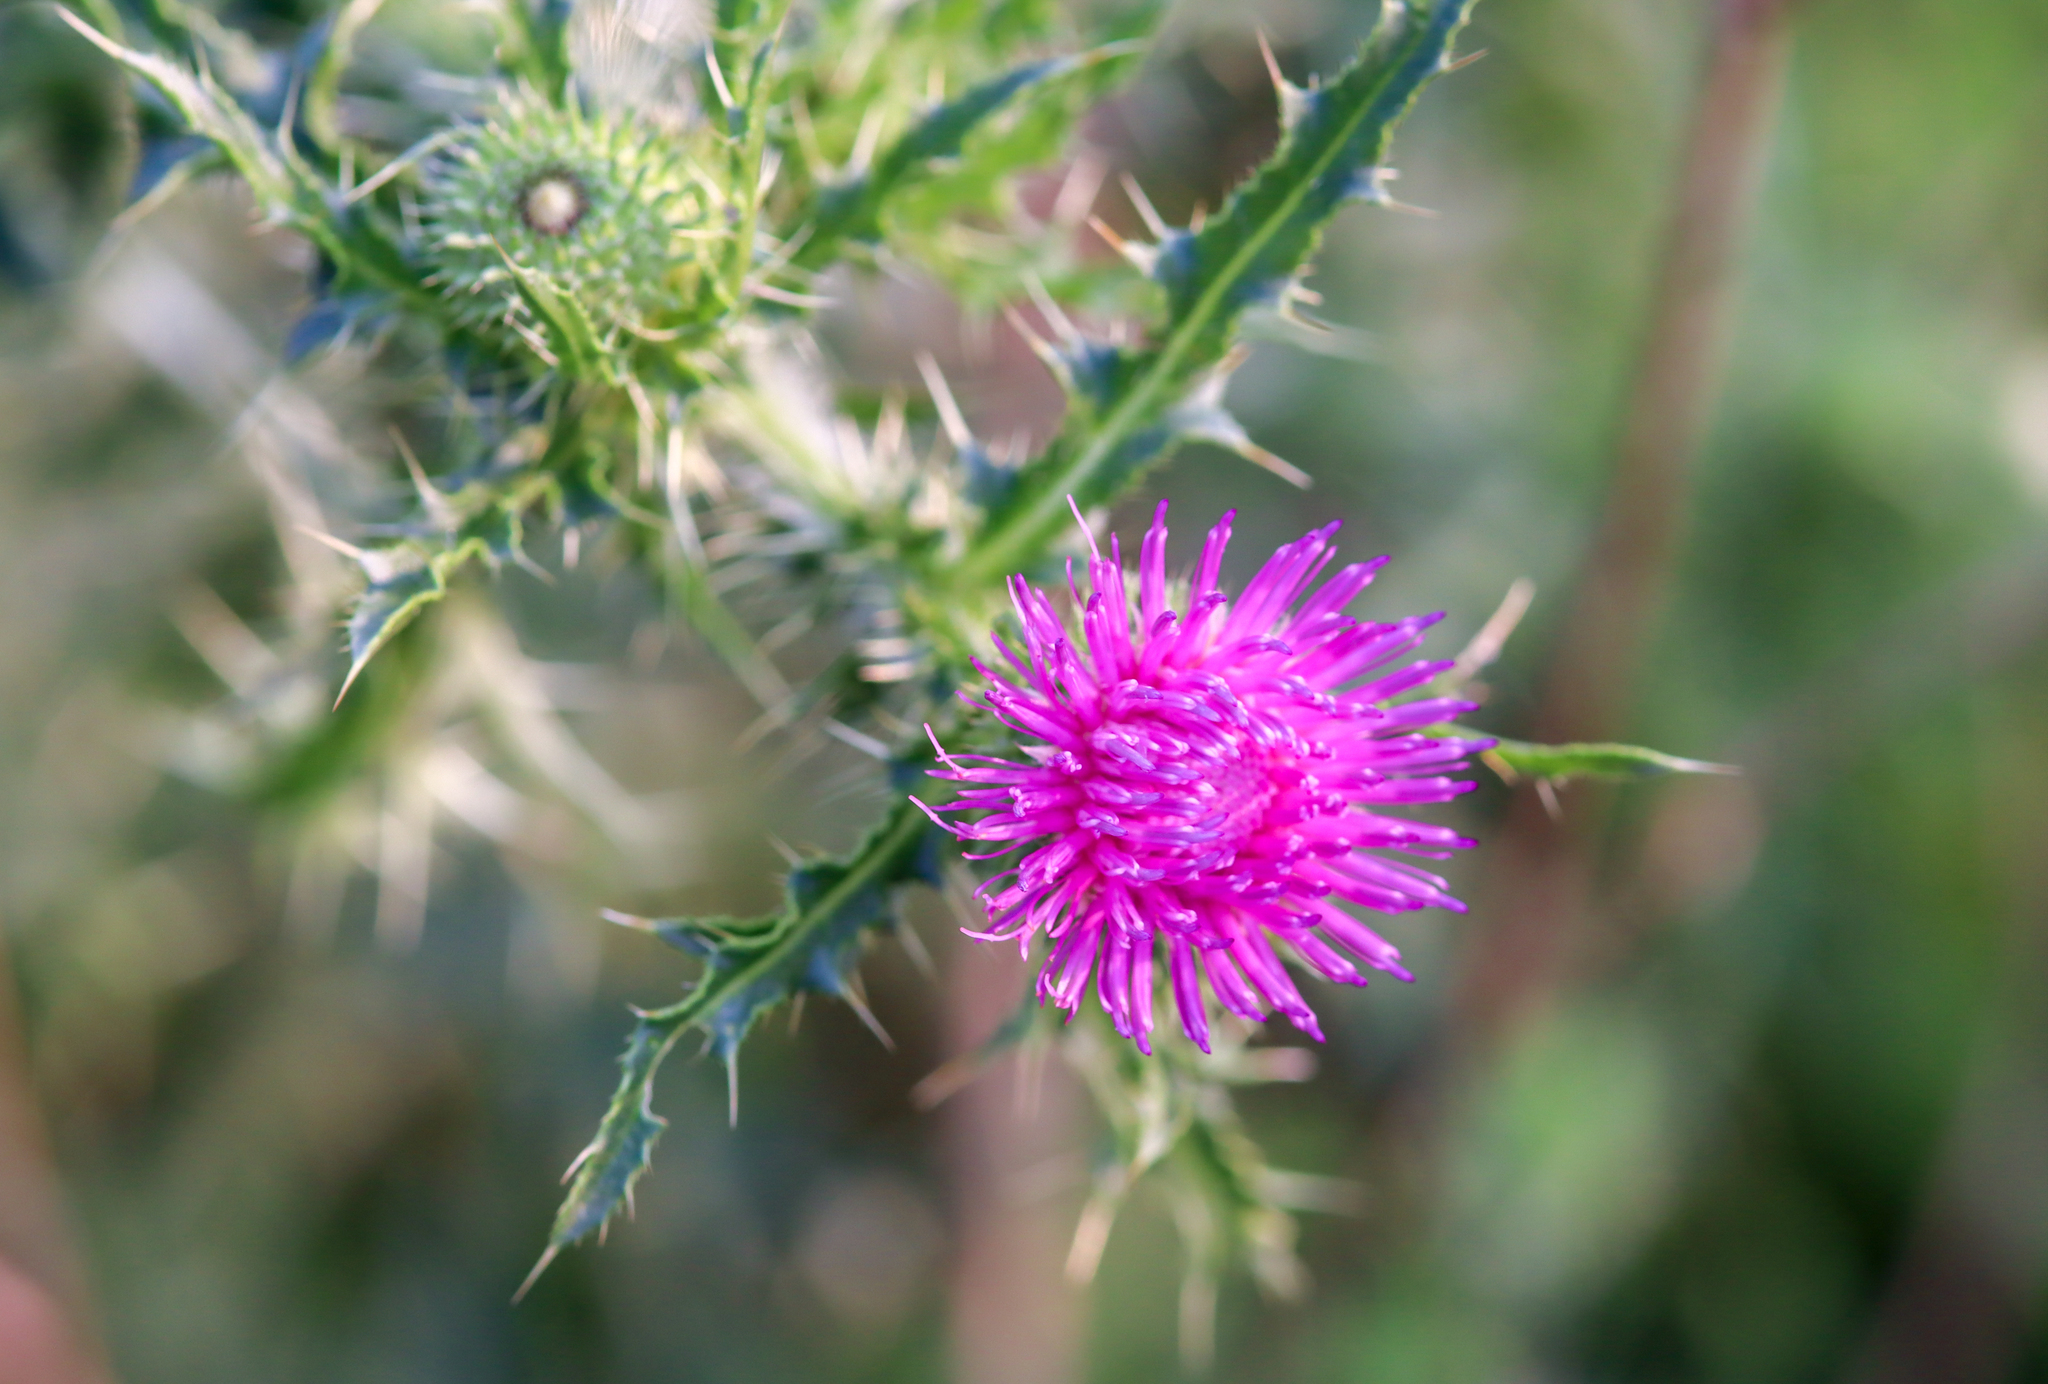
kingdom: Plantae
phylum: Tracheophyta
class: Magnoliopsida
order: Asterales
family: Asteraceae
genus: Carduus
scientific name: Carduus acanthoides
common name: Plumeless thistle
